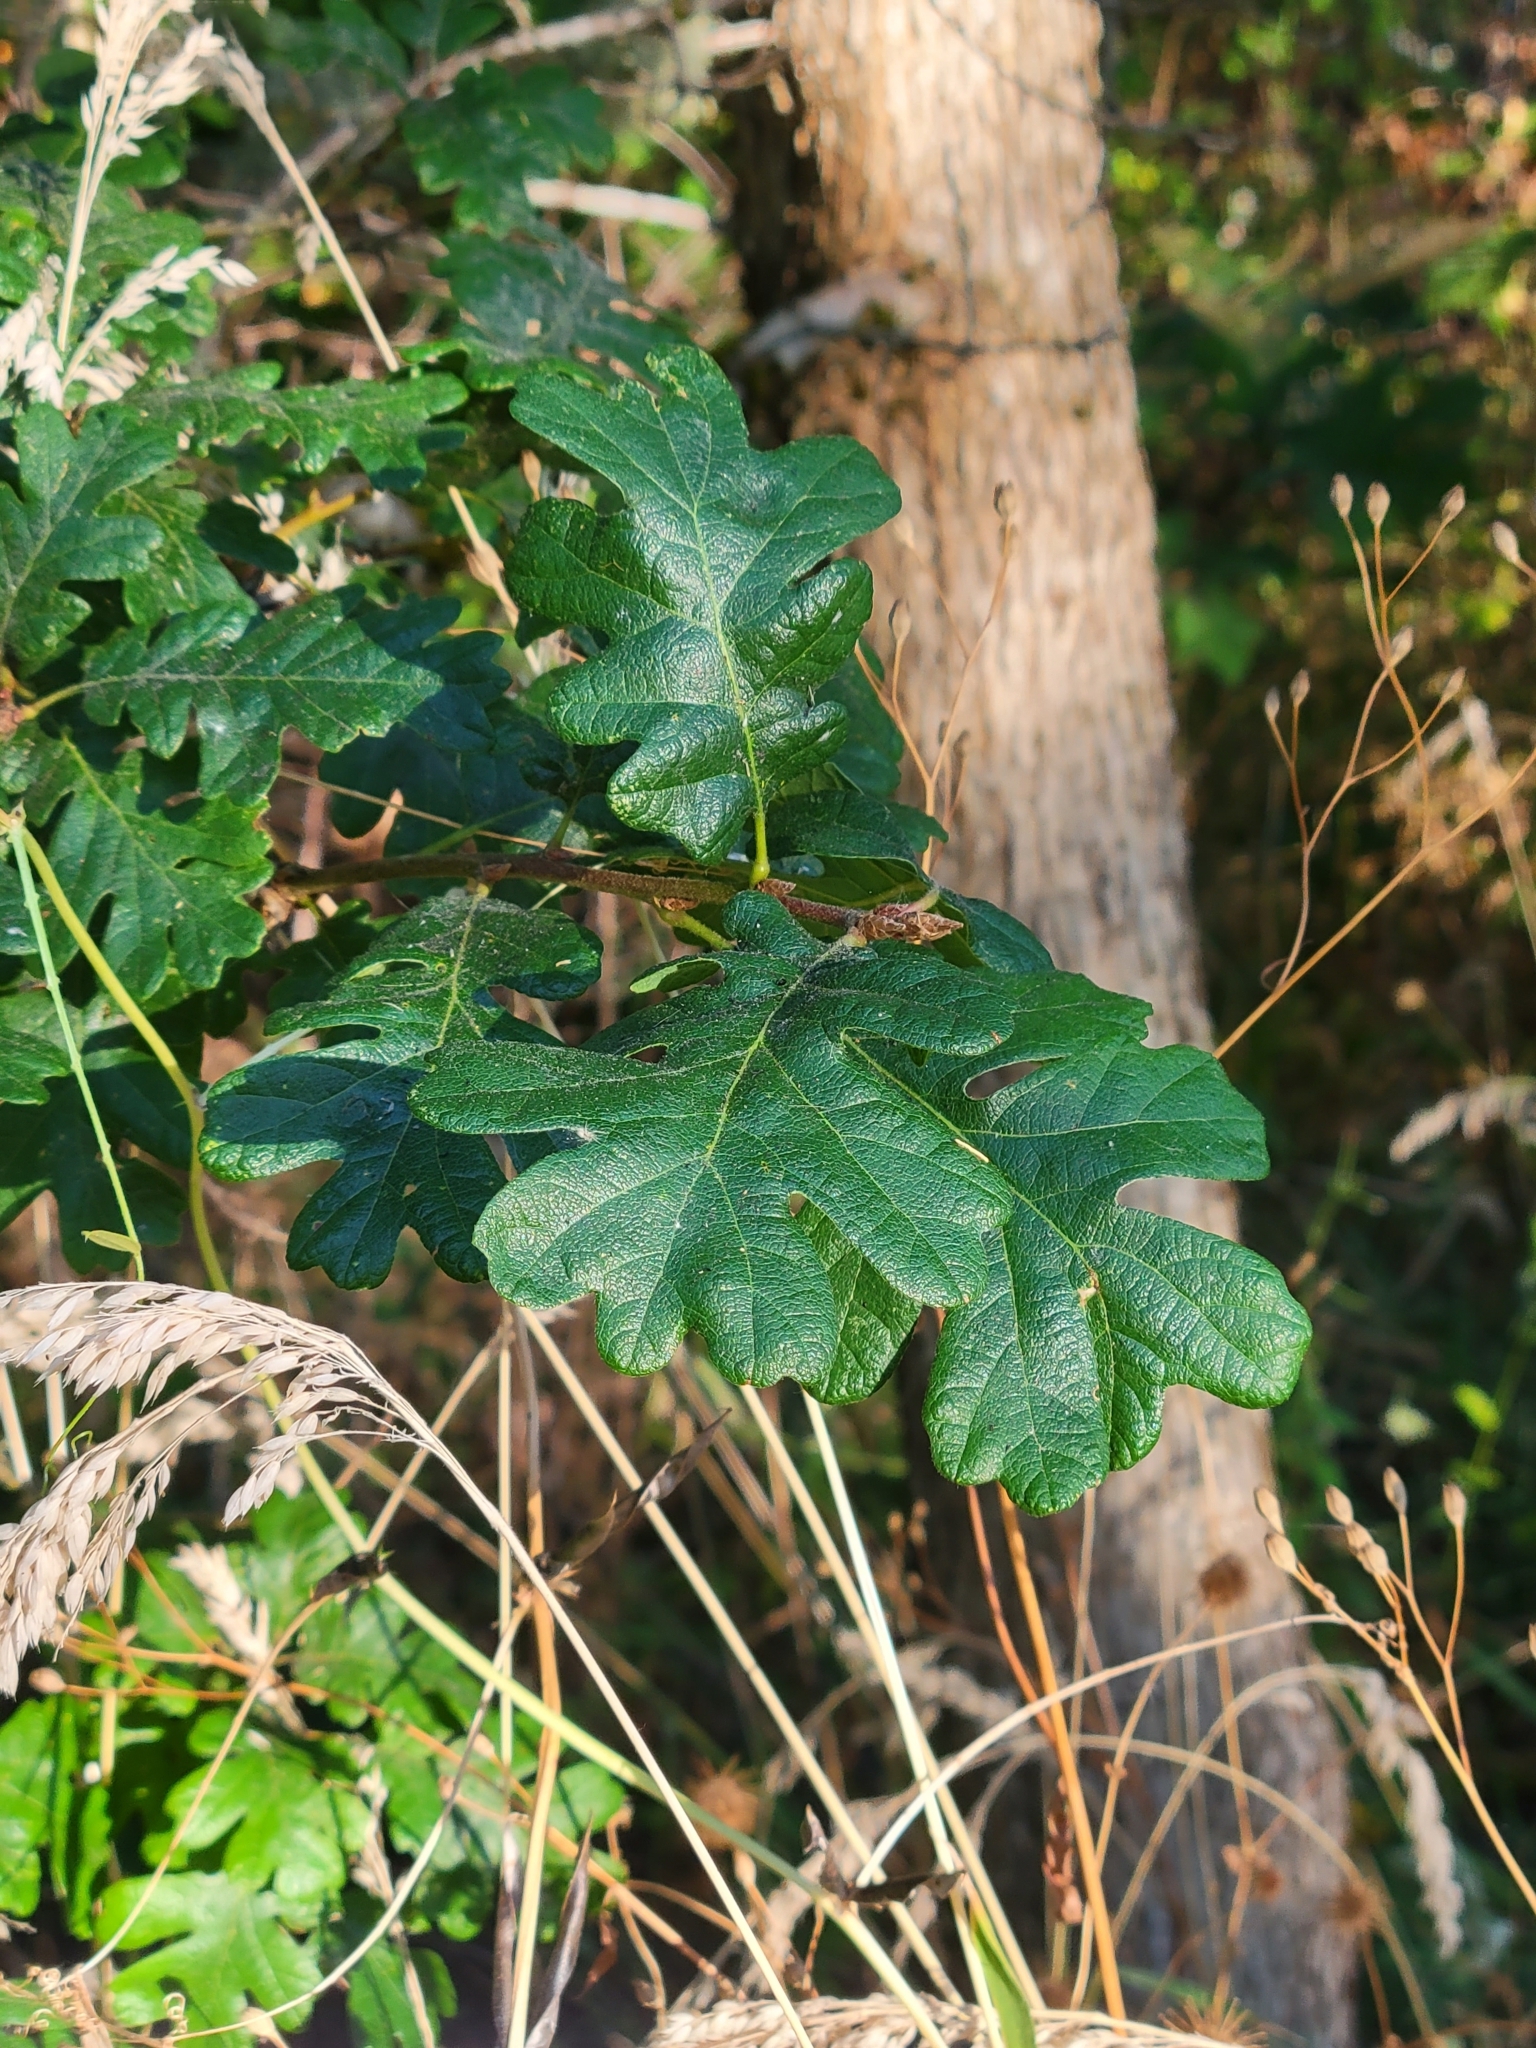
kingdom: Plantae
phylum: Tracheophyta
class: Magnoliopsida
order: Fagales
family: Fagaceae
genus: Quercus
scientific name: Quercus garryana
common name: Garry oak
